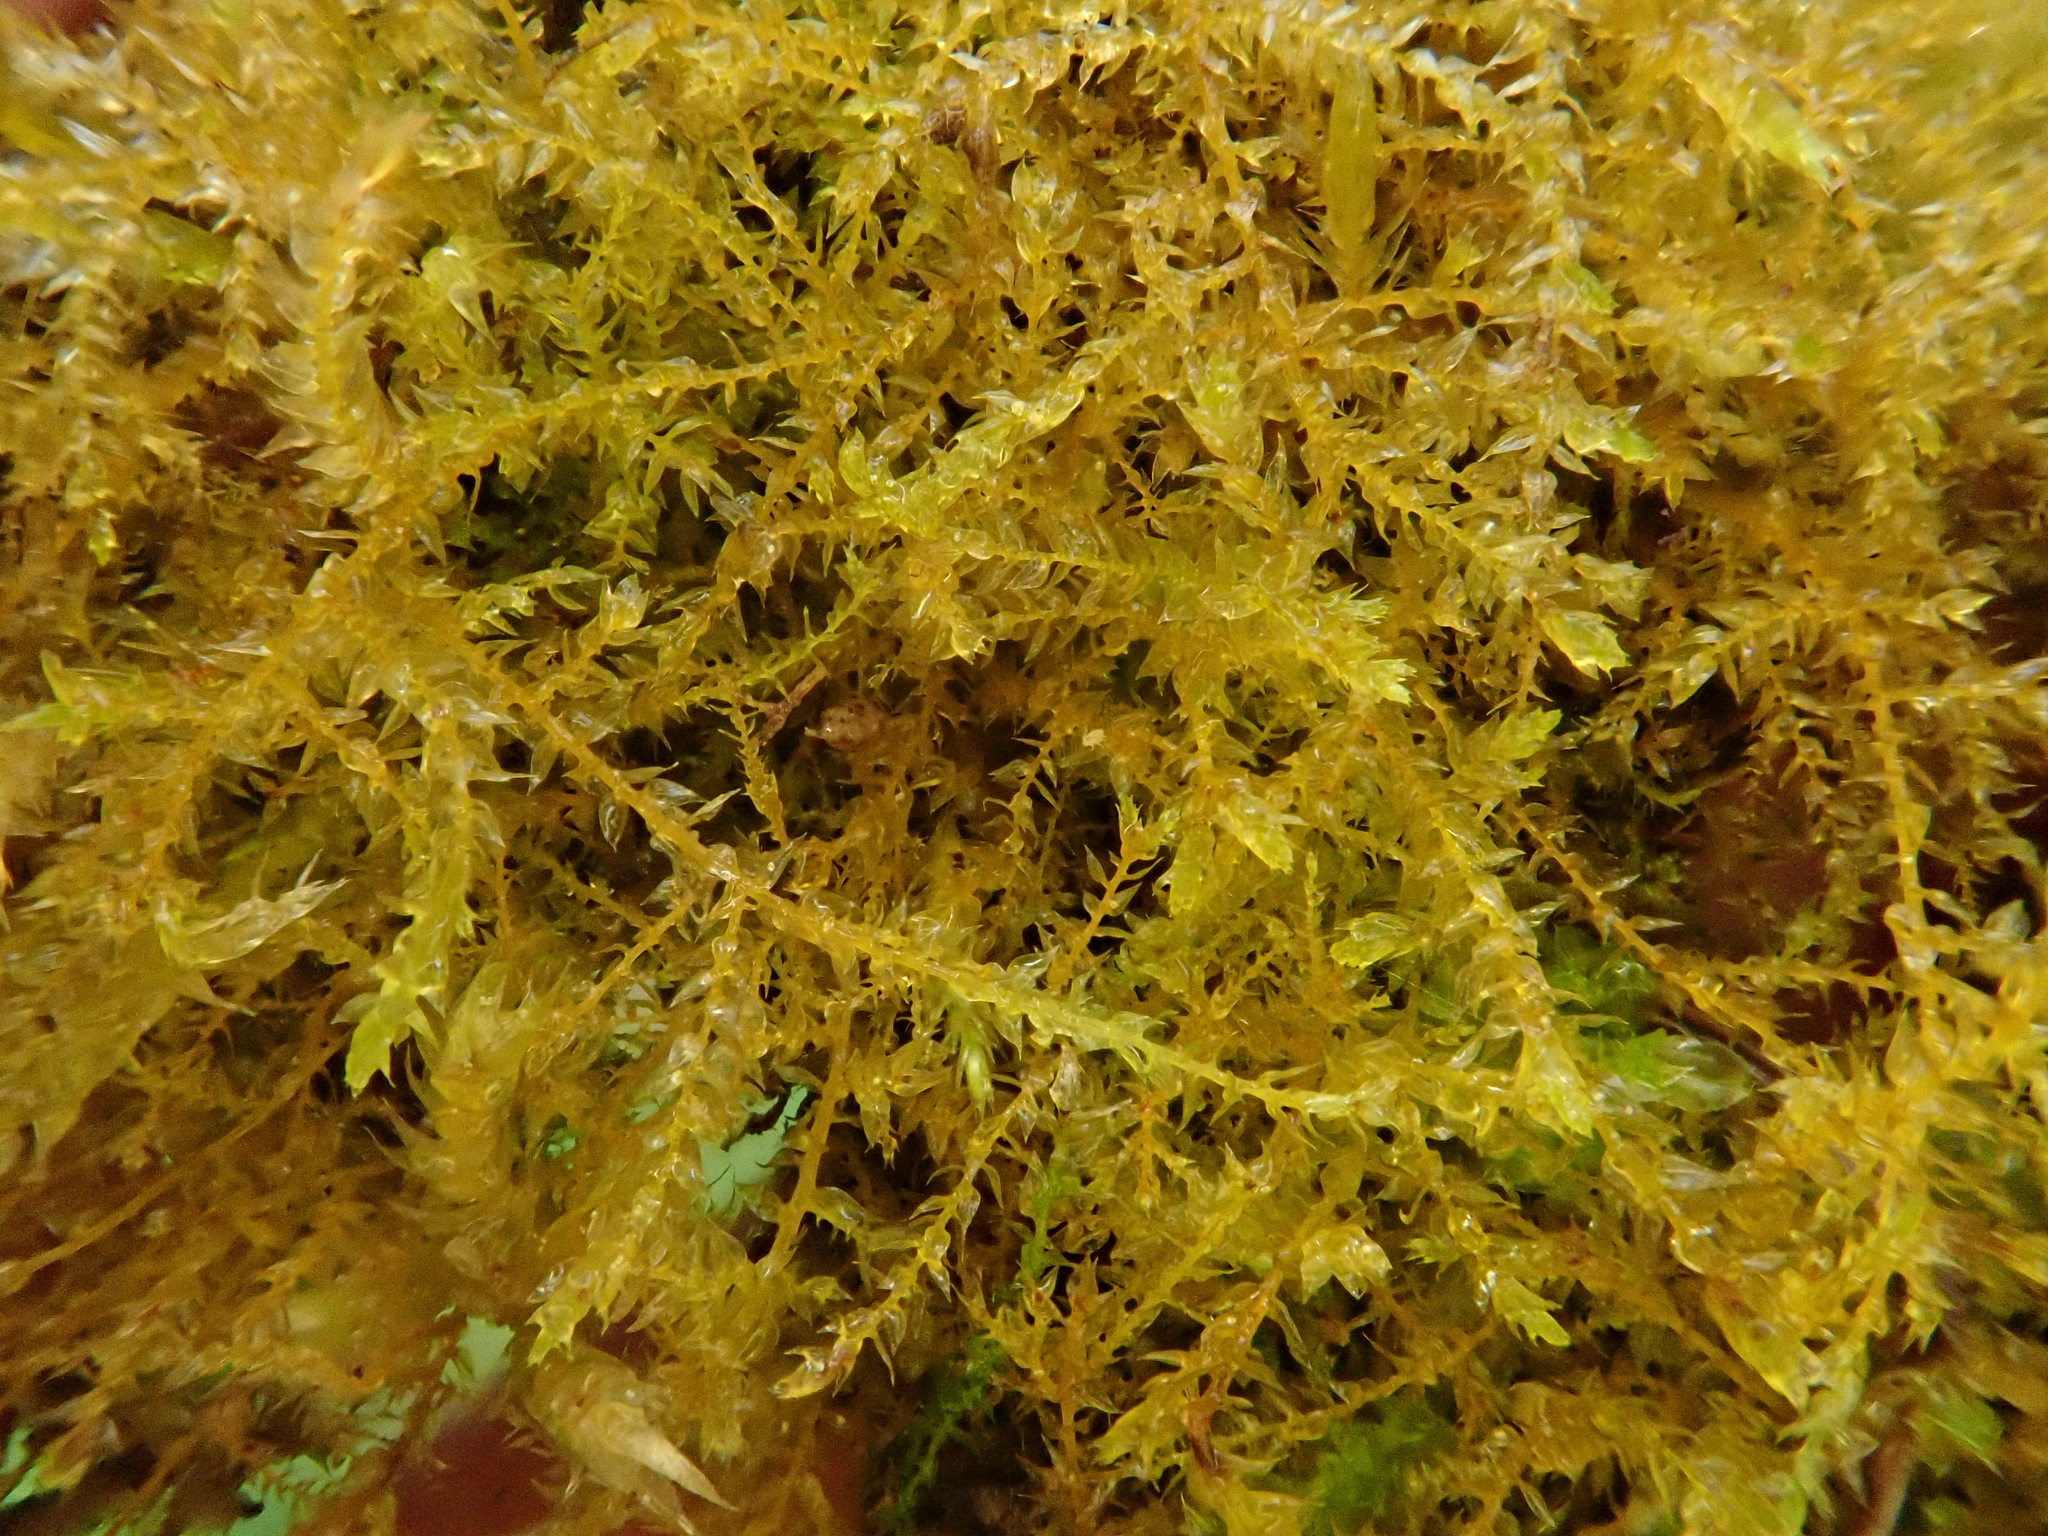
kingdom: Plantae
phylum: Bryophyta
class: Bryopsida
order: Hypnales
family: Brachytheciaceae
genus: Oxyrrhynchium
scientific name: Oxyrrhynchium hians
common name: Spreading beaked moss
